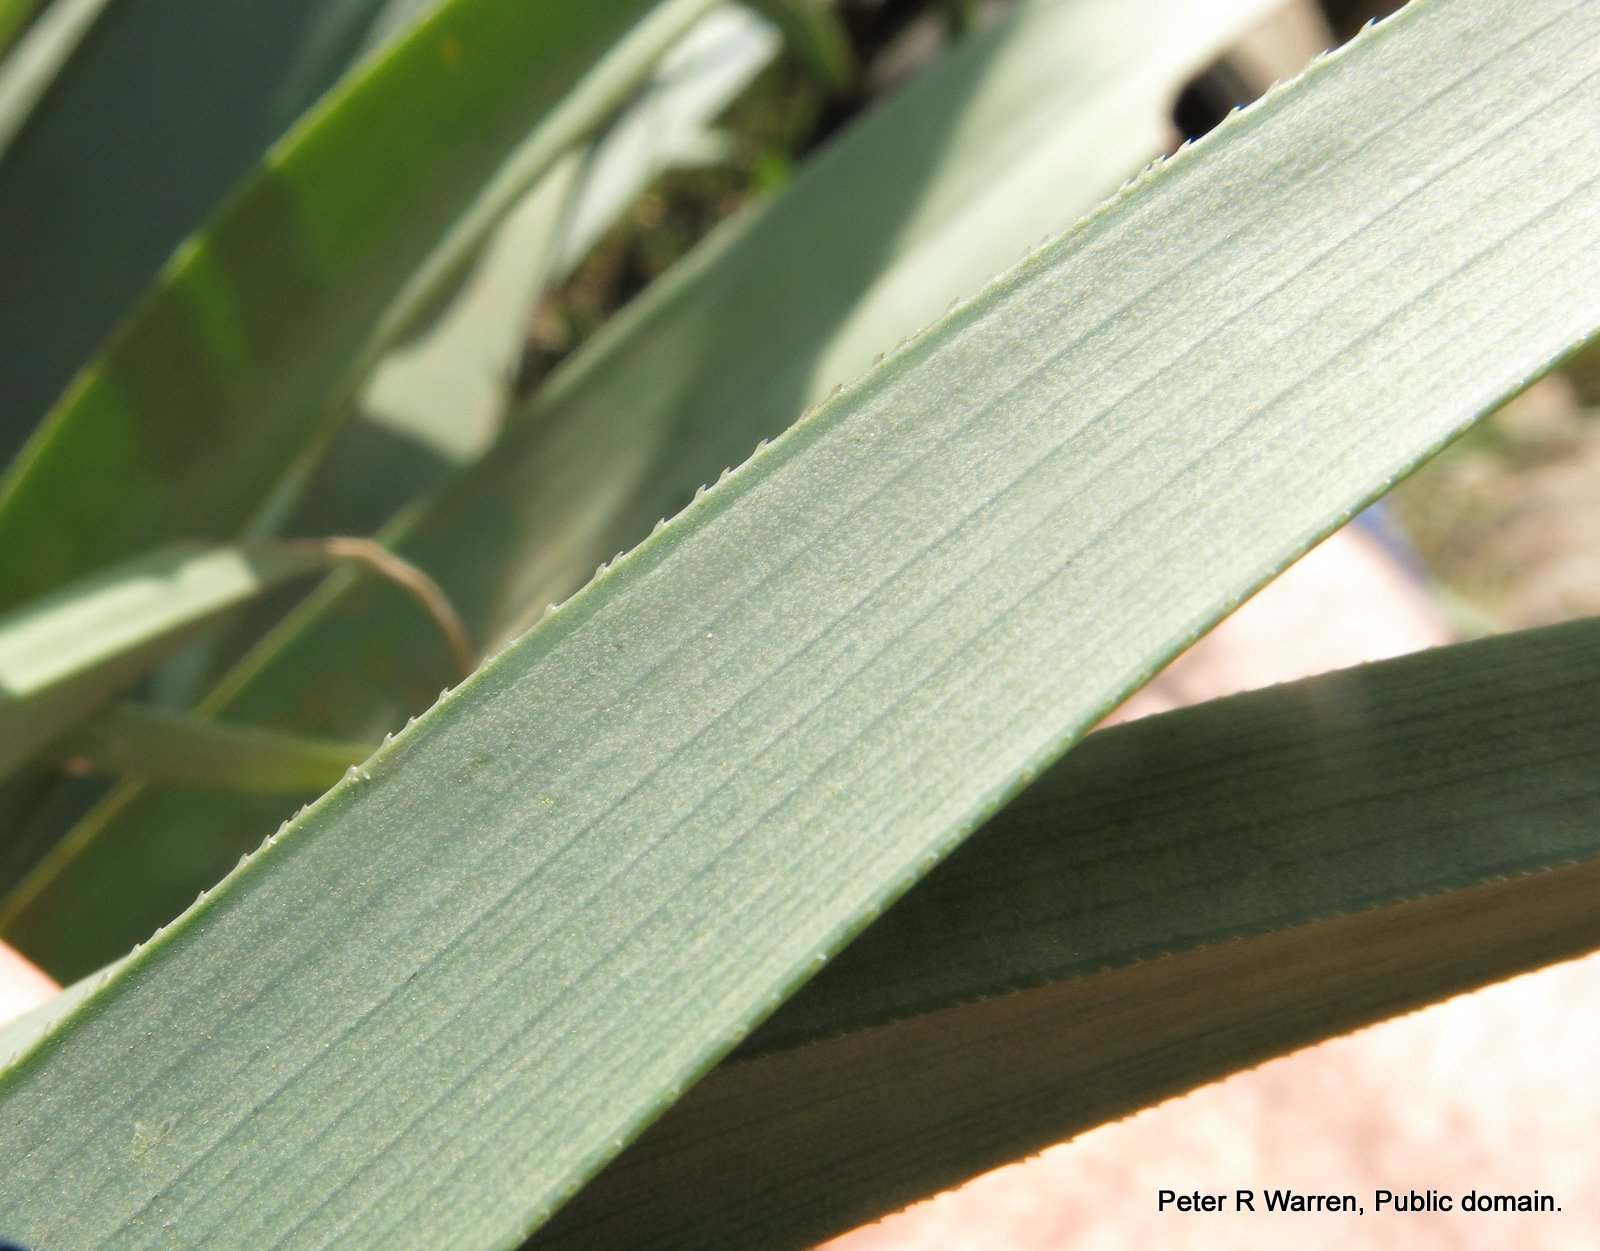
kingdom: Plantae
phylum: Tracheophyta
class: Liliopsida
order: Asparagales
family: Asphodelaceae
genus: Kniphofia
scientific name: Kniphofia caulescens
